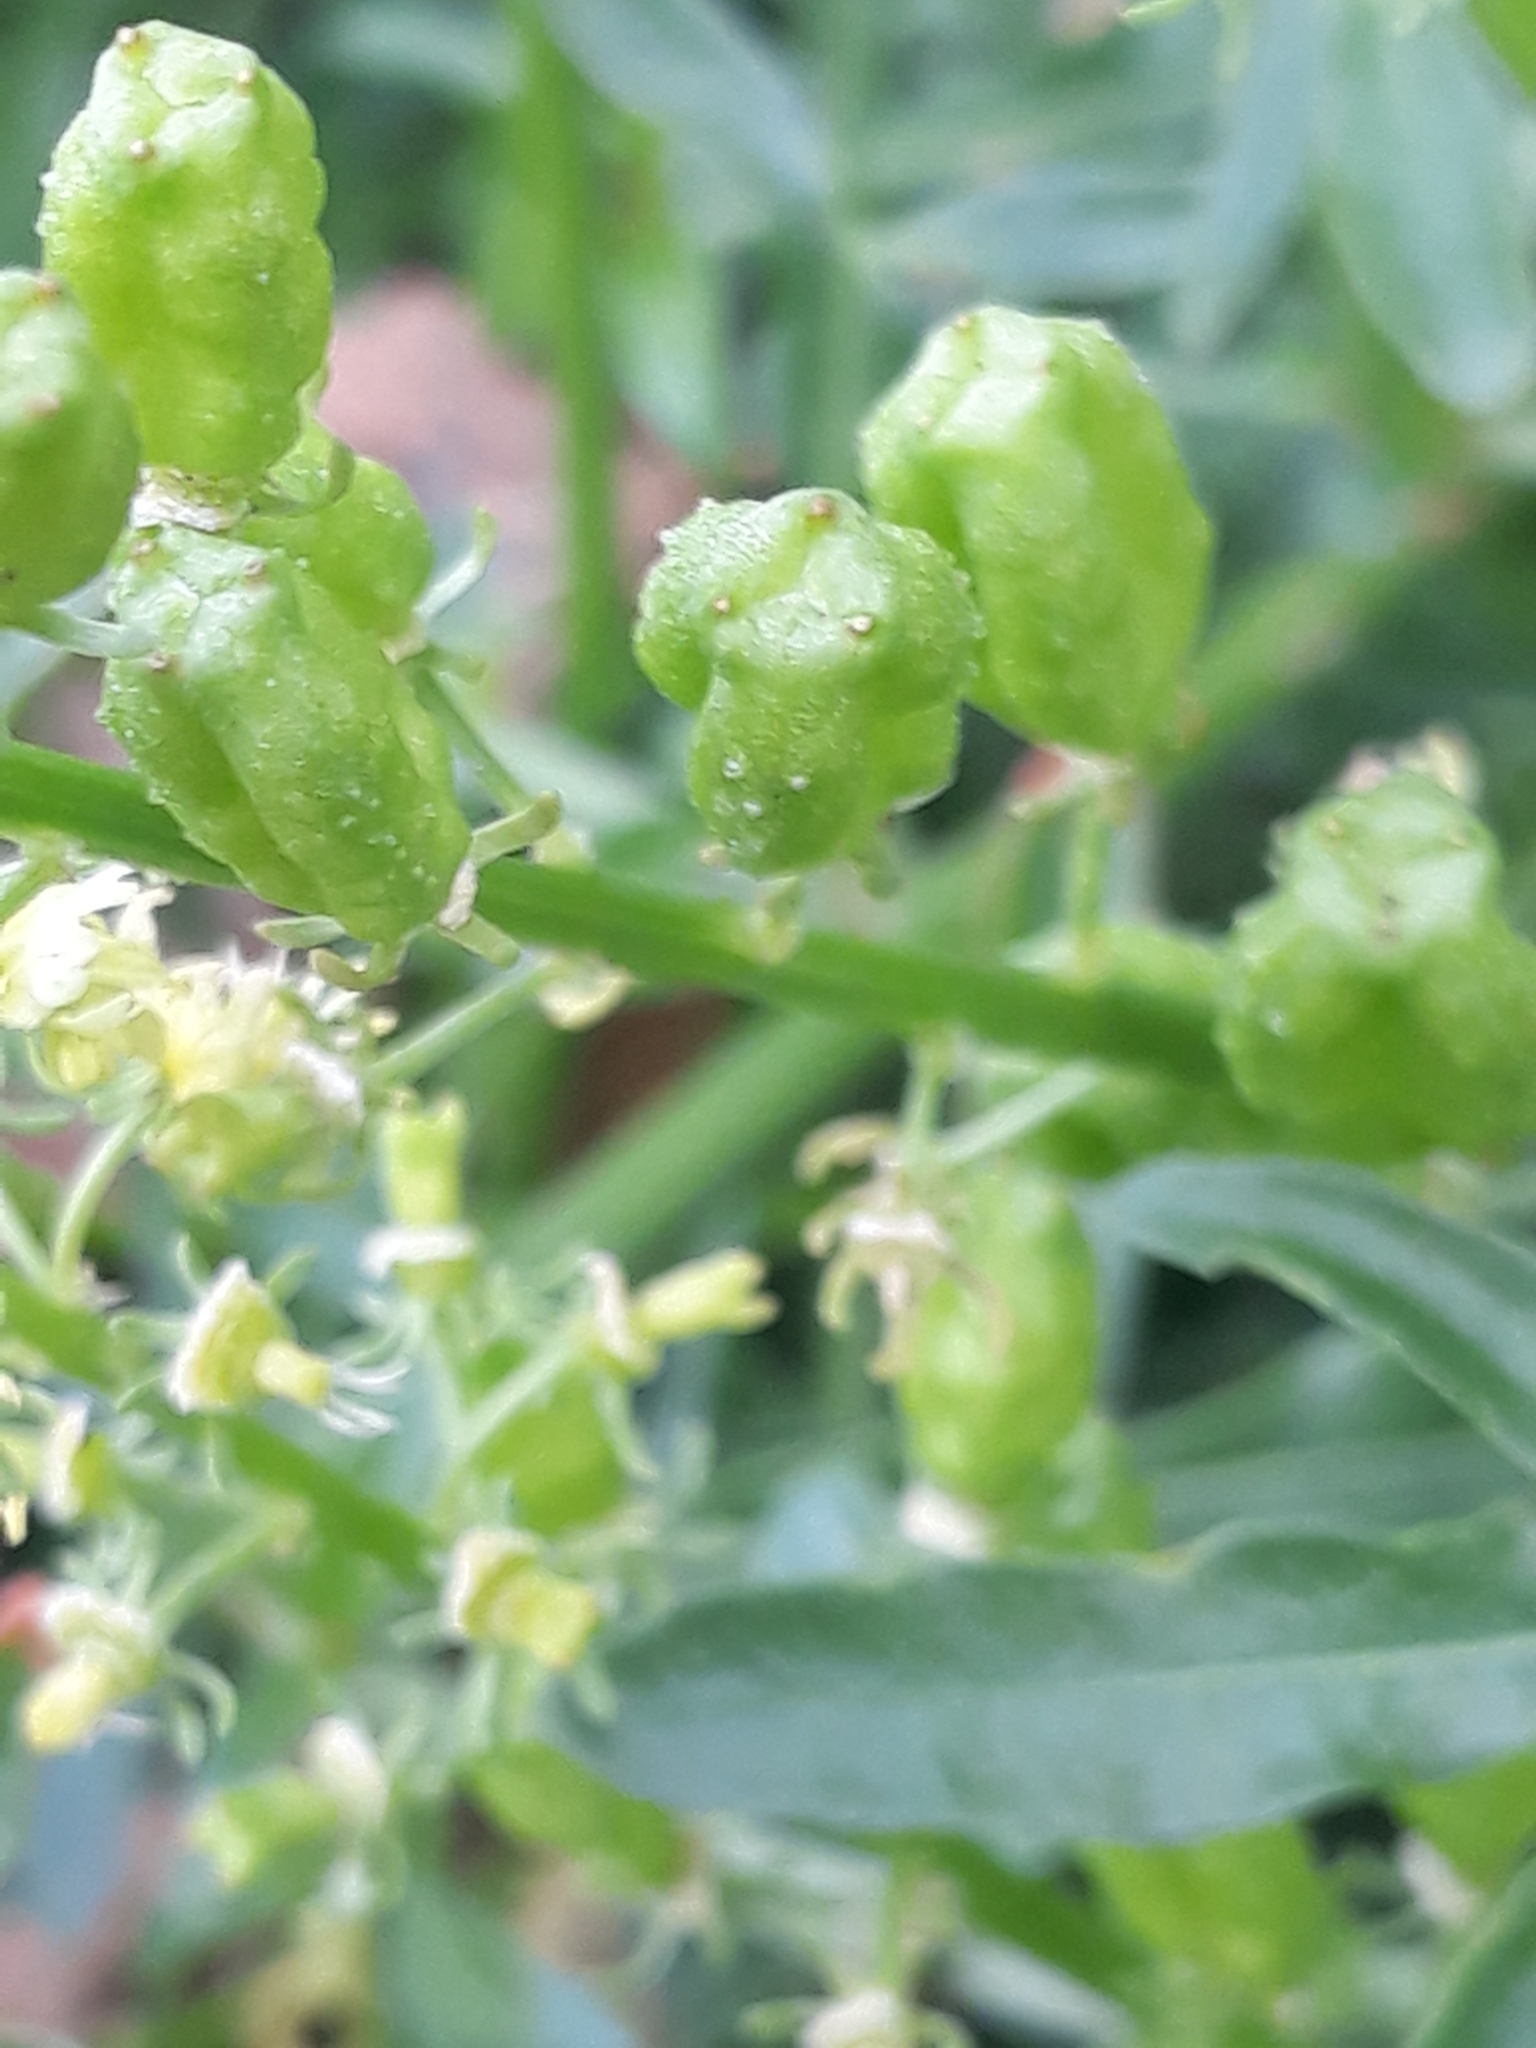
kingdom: Plantae
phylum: Tracheophyta
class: Magnoliopsida
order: Brassicales
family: Resedaceae
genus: Reseda
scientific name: Reseda lutea
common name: Wild mignonette
